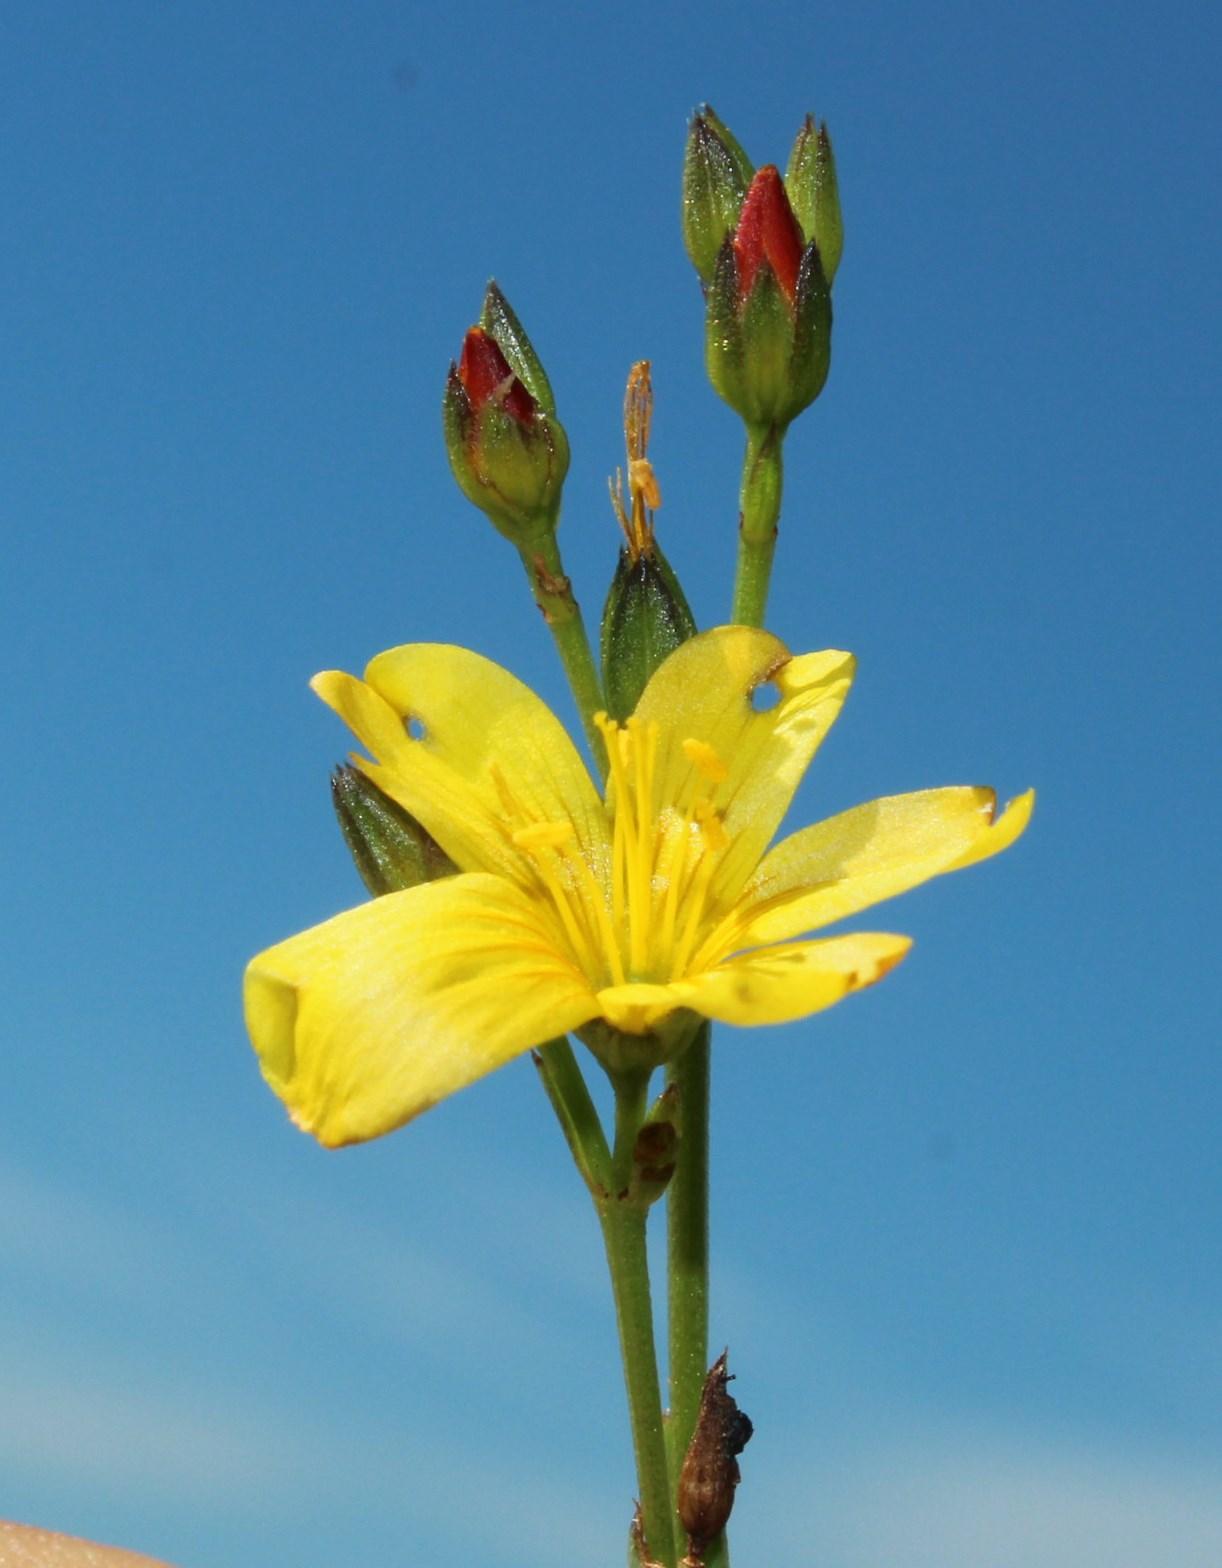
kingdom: Plantae
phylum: Tracheophyta
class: Magnoliopsida
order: Malpighiales
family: Linaceae
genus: Linum
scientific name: Linum thunbergii
